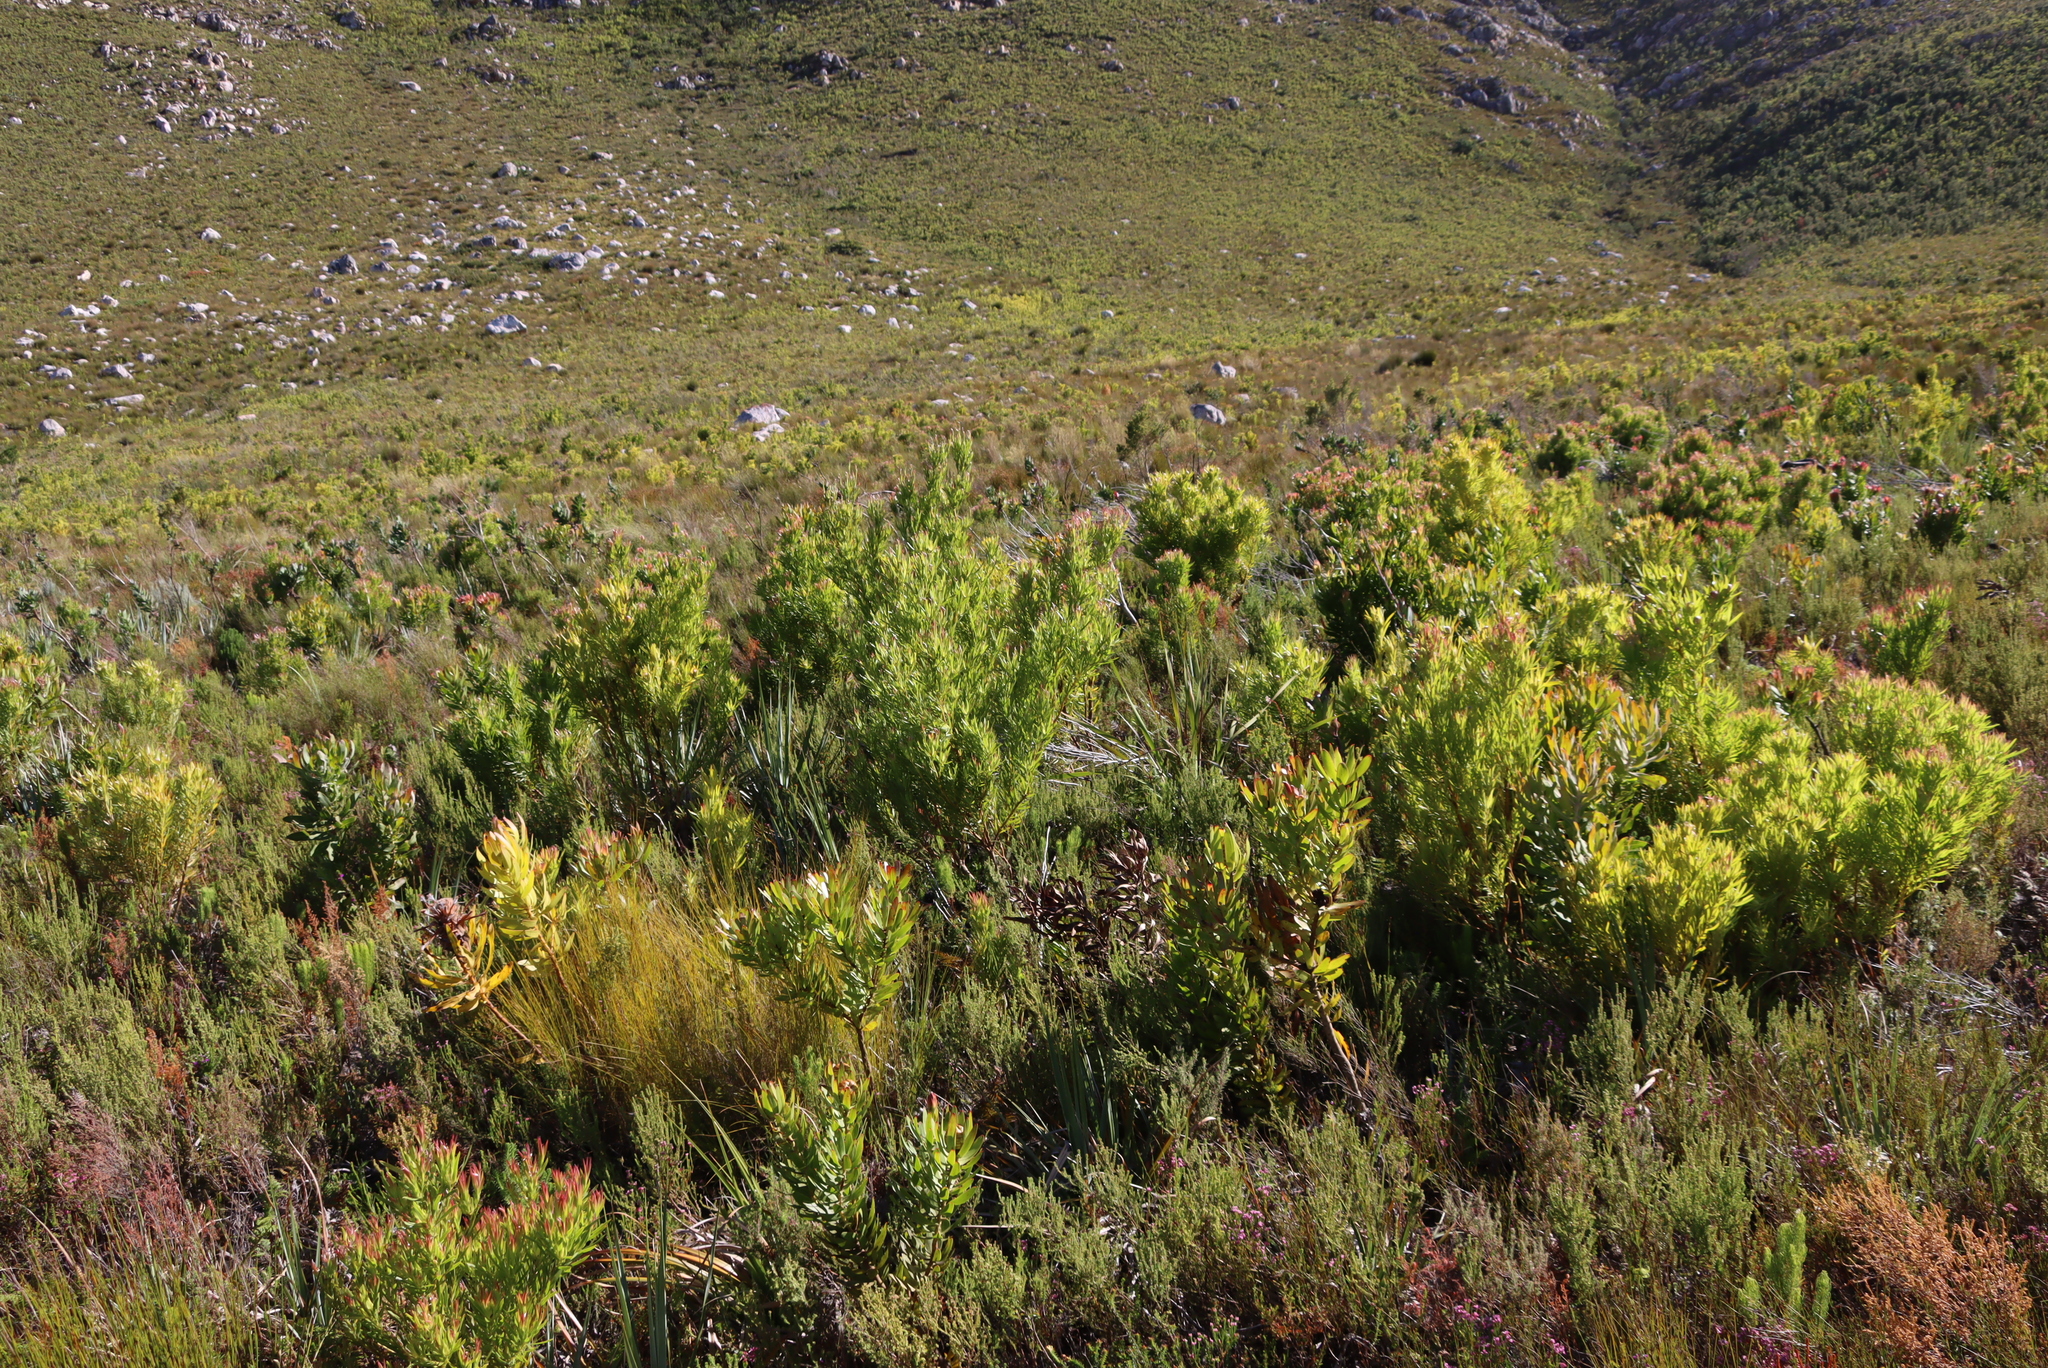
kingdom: Plantae
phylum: Tracheophyta
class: Magnoliopsida
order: Proteales
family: Proteaceae
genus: Protea
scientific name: Protea laurifolia
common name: Grey-leaf sugarbsh
